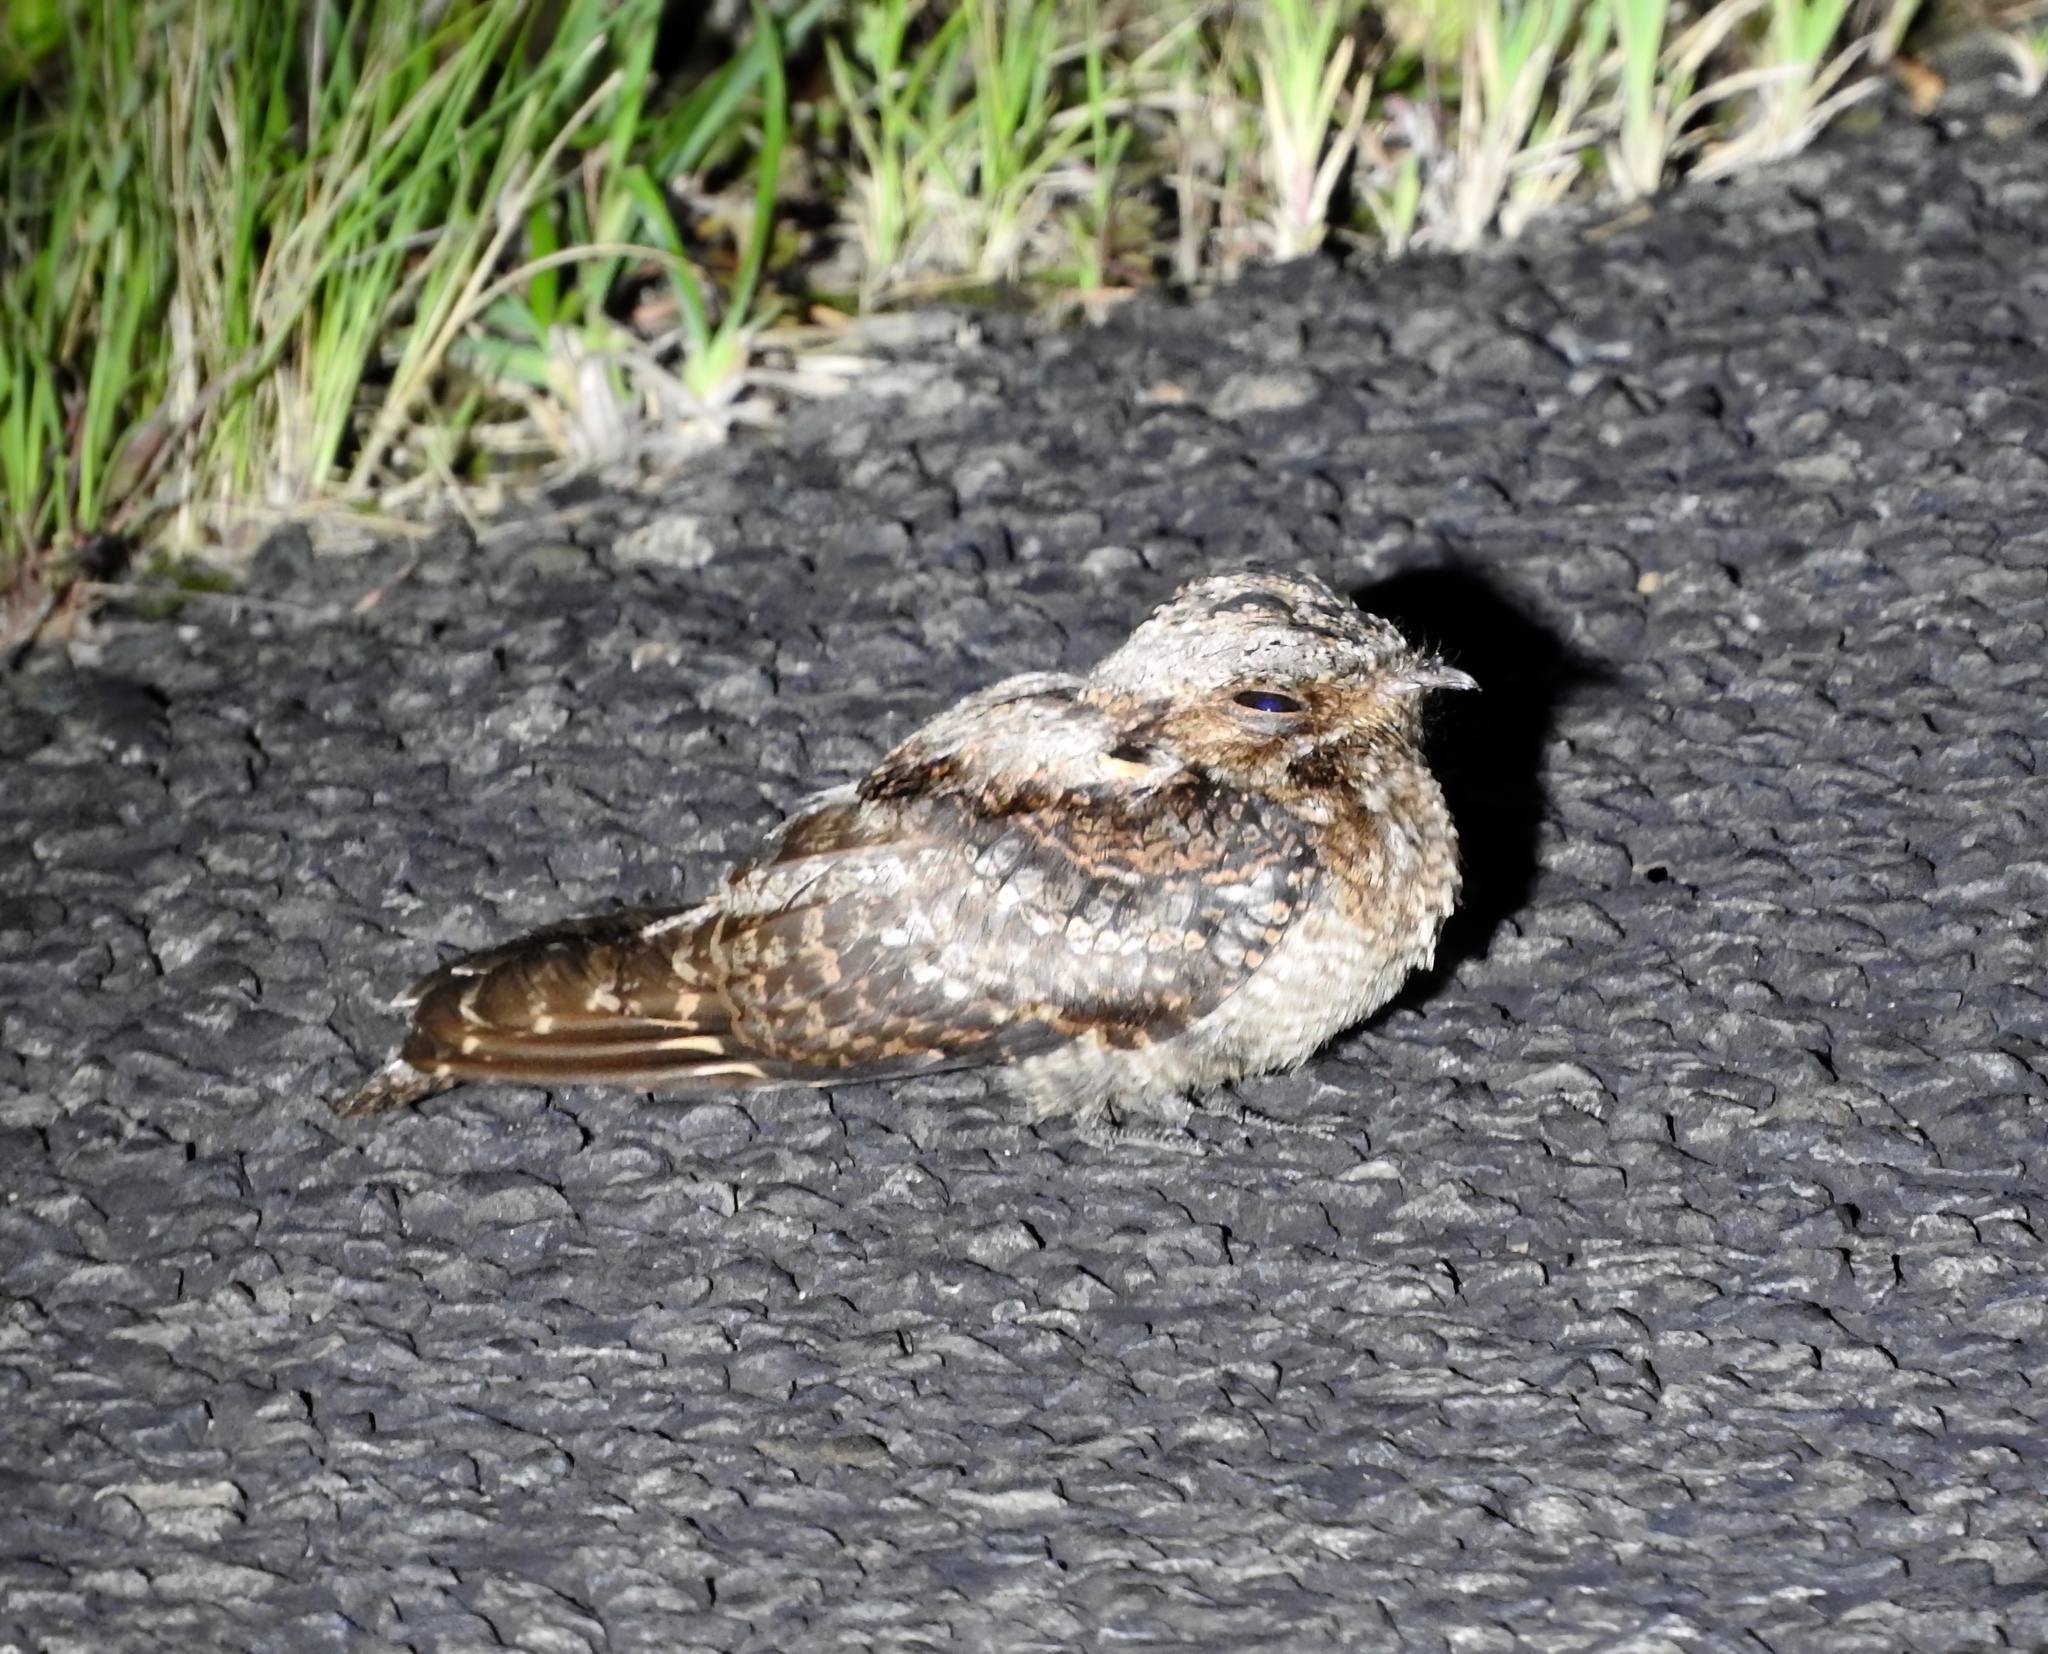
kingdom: Animalia
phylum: Chordata
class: Aves
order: Caprimulgiformes
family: Caprimulgidae
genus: Caprimulgus
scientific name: Caprimulgus pectoralis
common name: Fiery-necked nightjar
